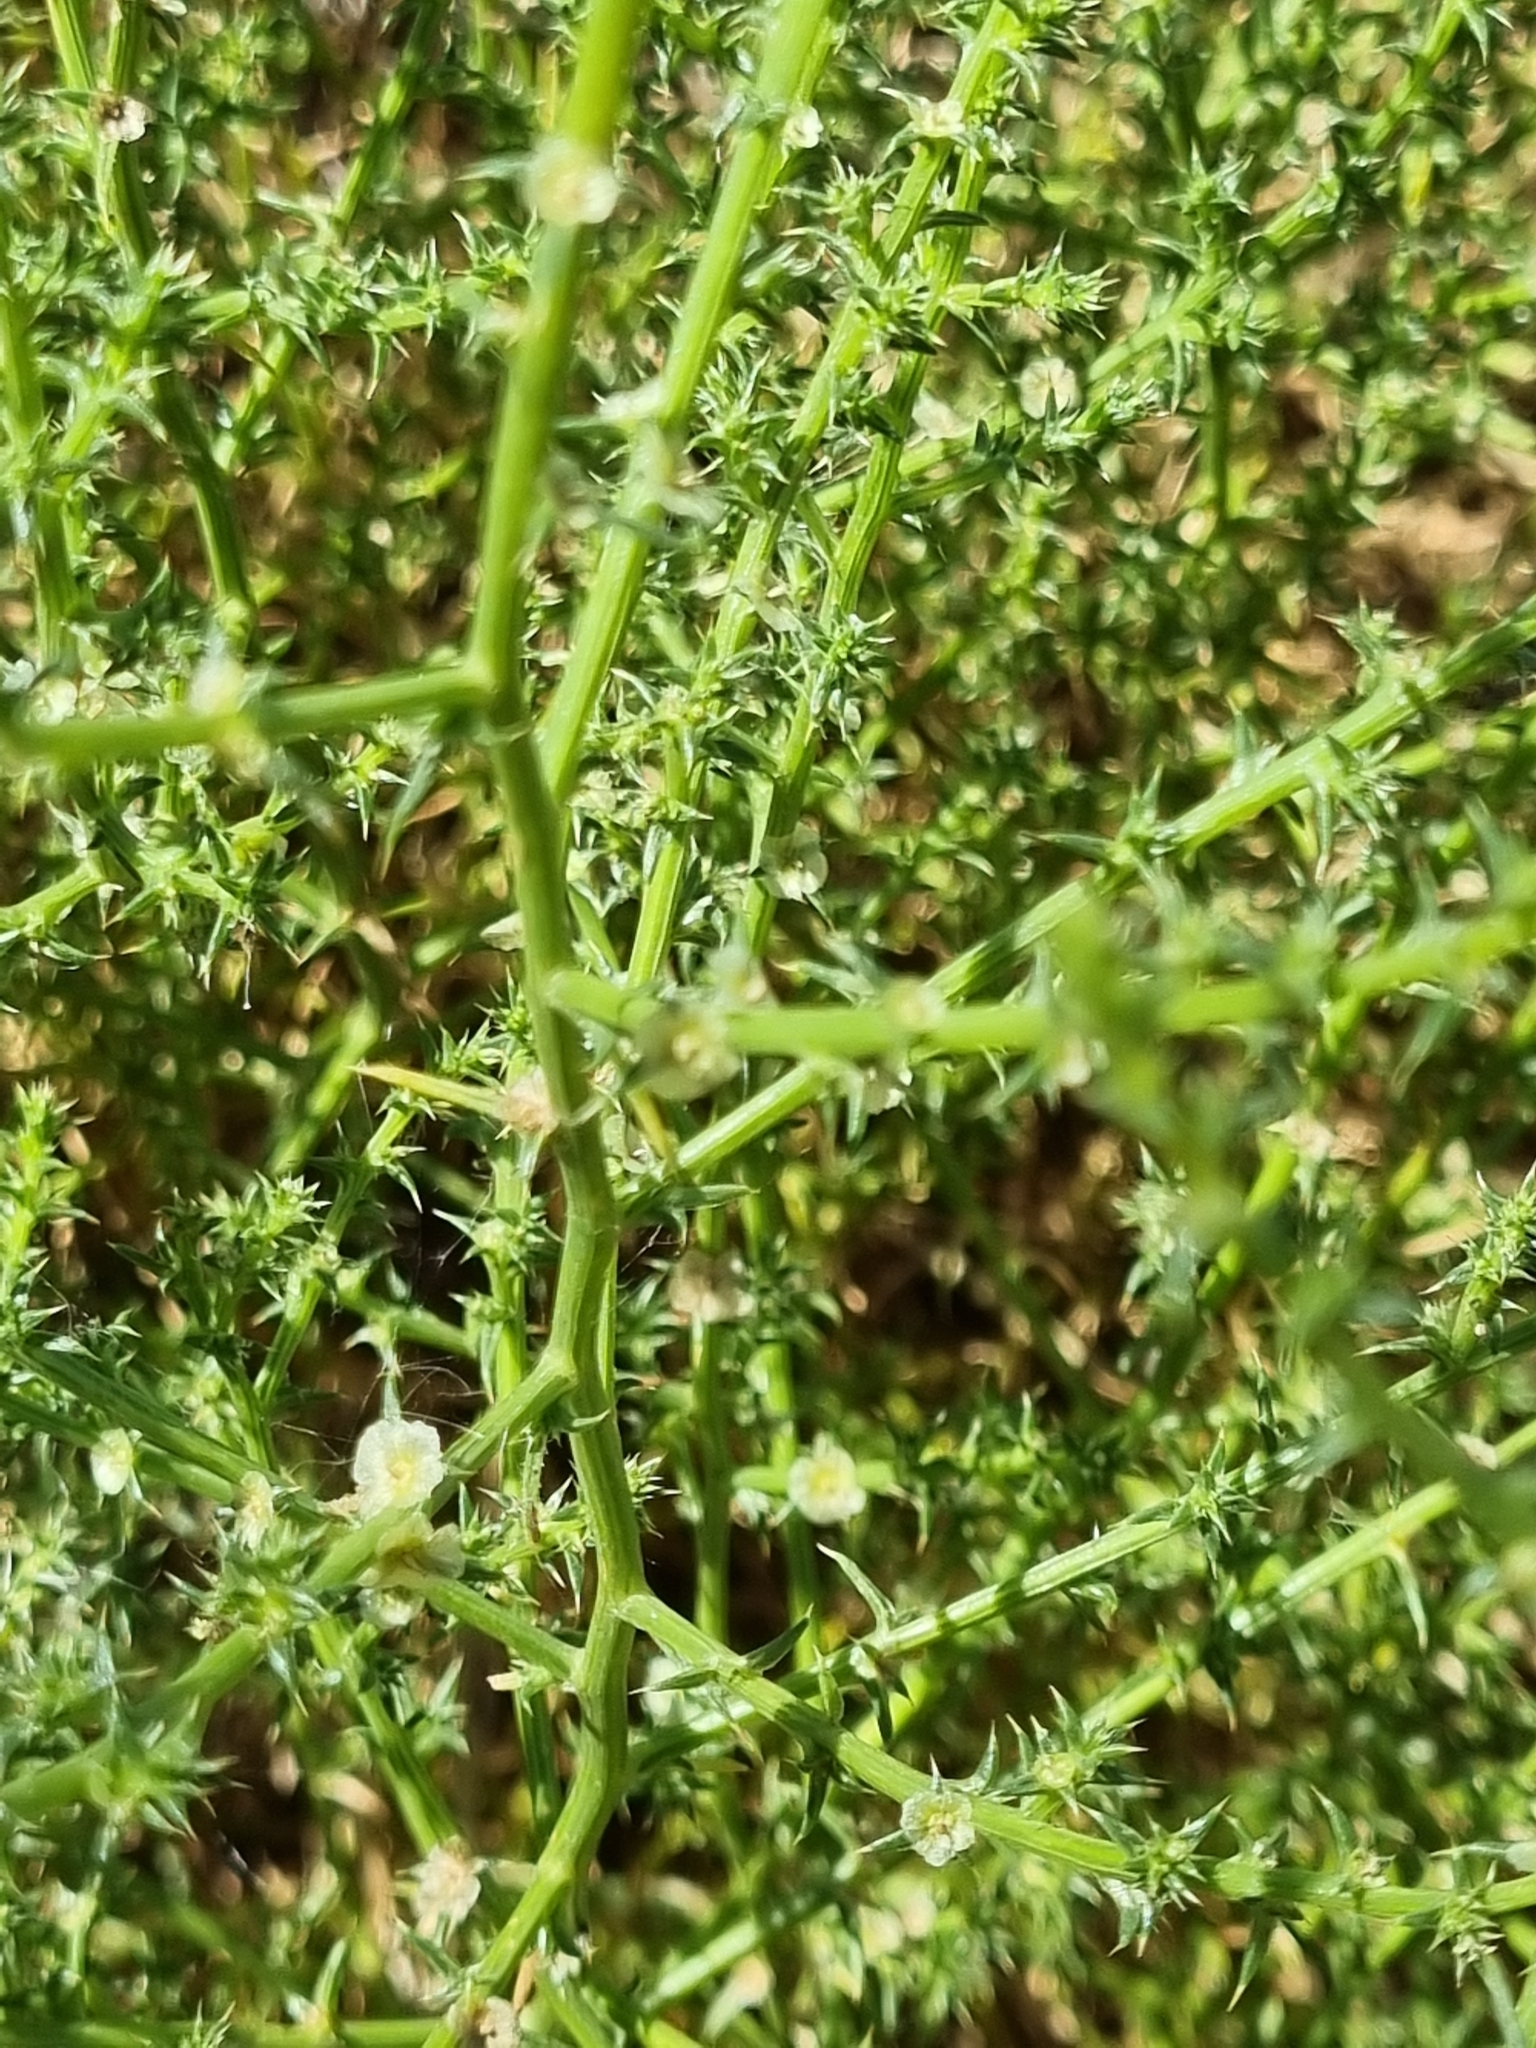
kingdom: Plantae
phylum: Tracheophyta
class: Magnoliopsida
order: Caryophyllales
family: Amaranthaceae
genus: Salsola
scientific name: Salsola australis
